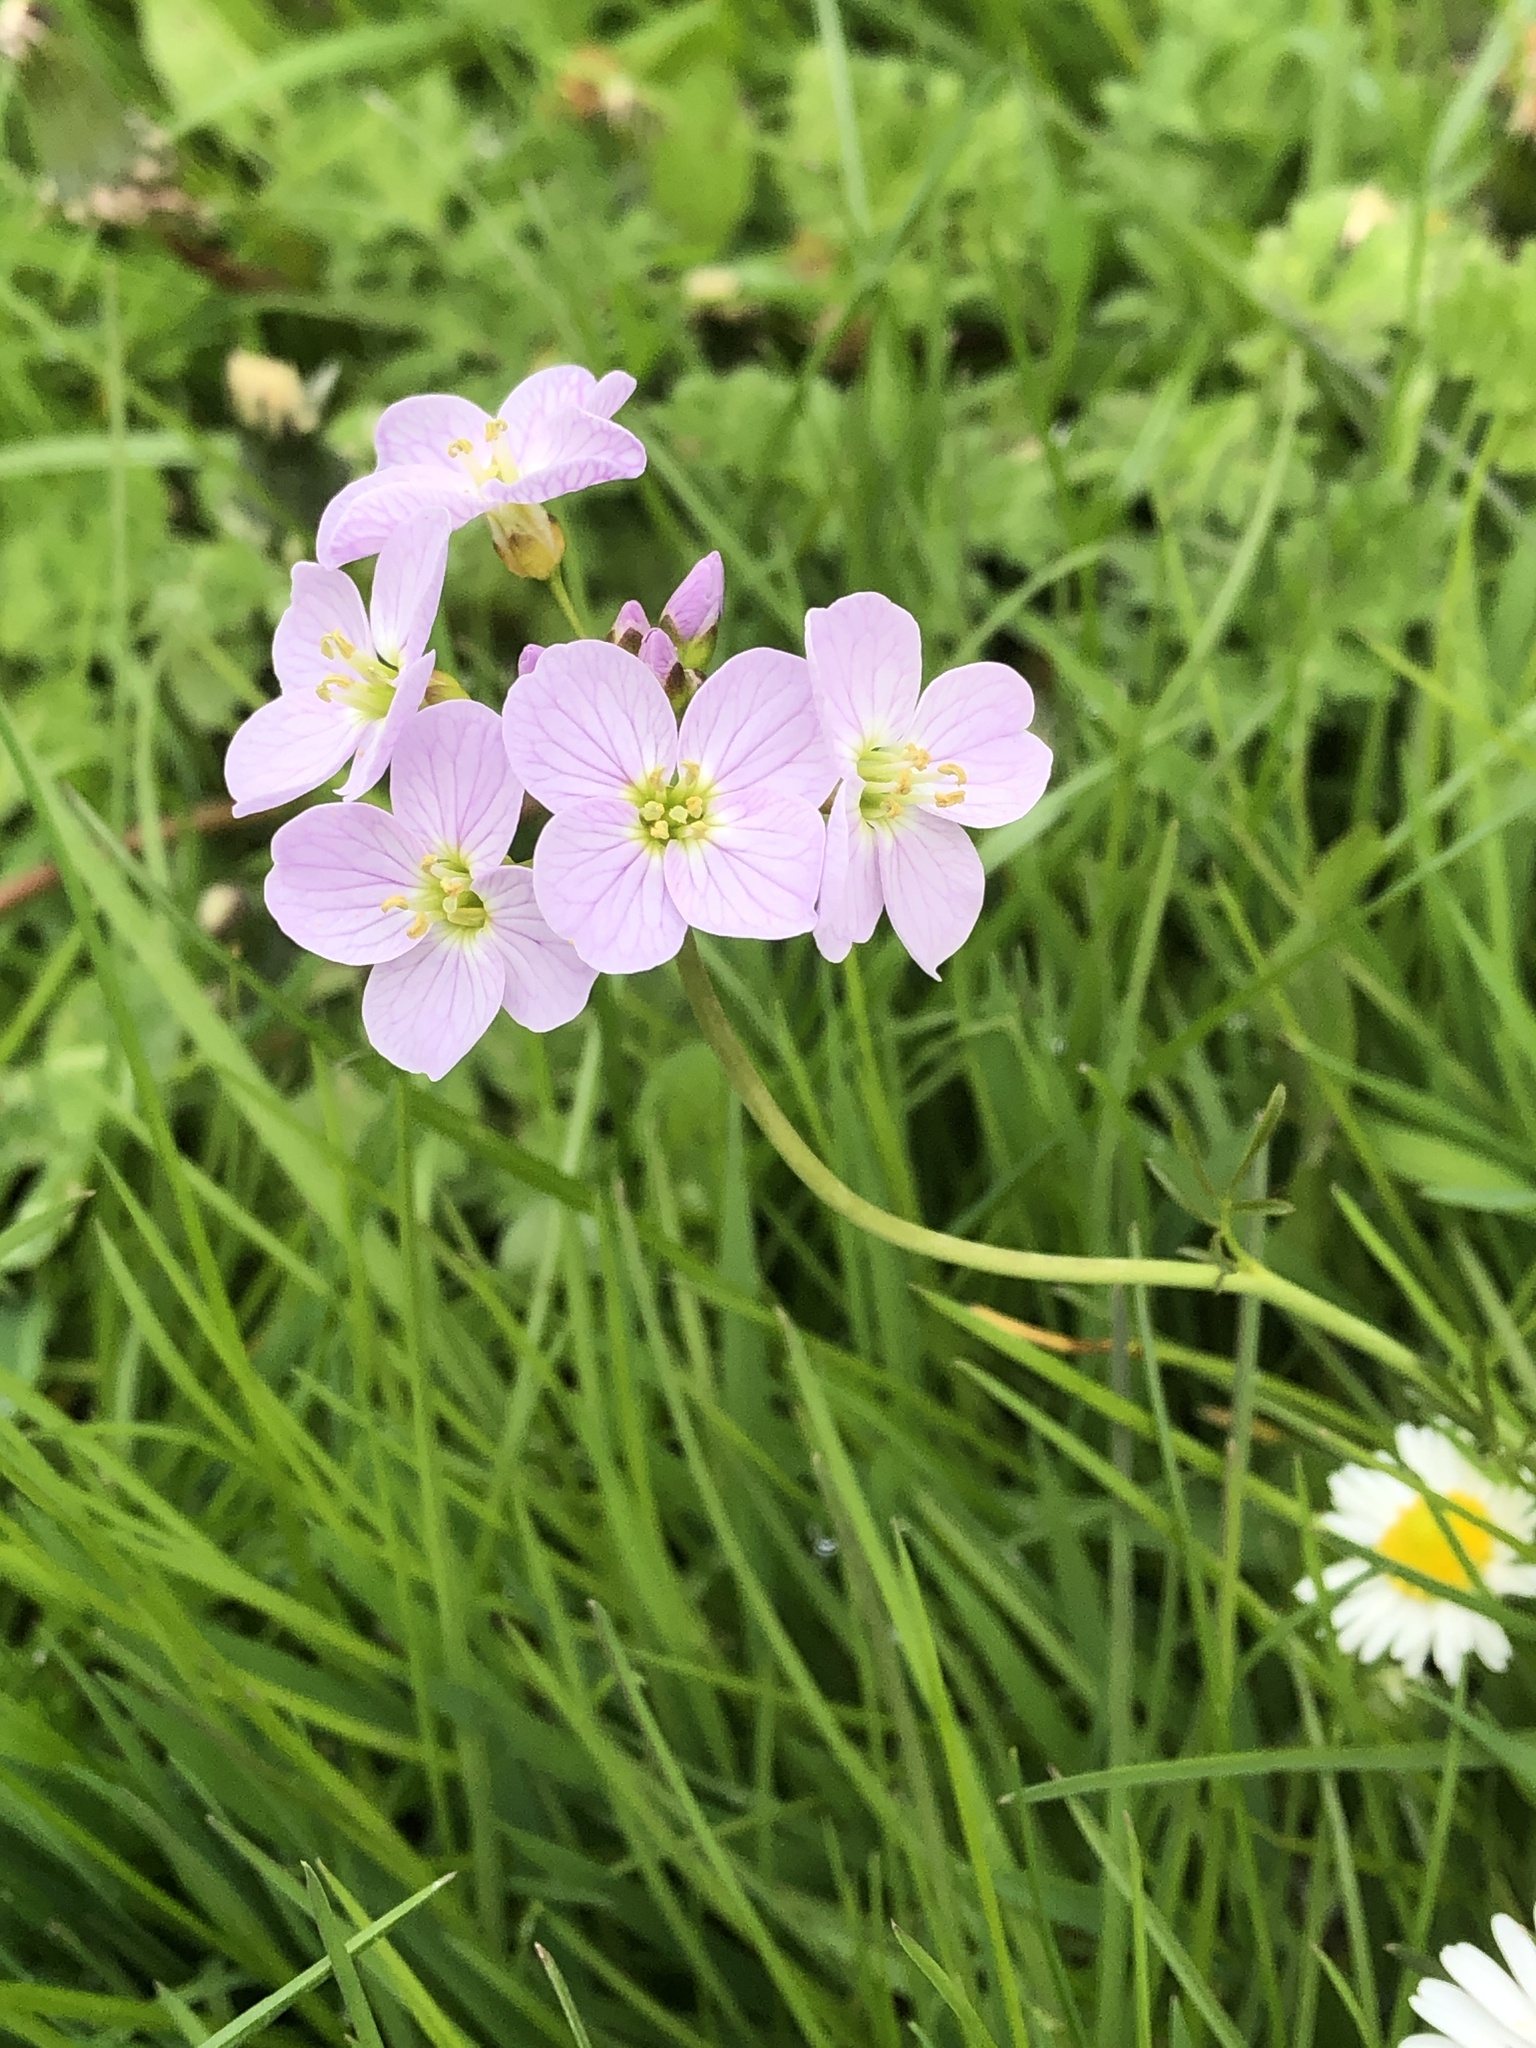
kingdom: Plantae
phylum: Tracheophyta
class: Magnoliopsida
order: Brassicales
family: Brassicaceae
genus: Cardamine
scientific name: Cardamine pratensis
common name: Cuckoo flower
